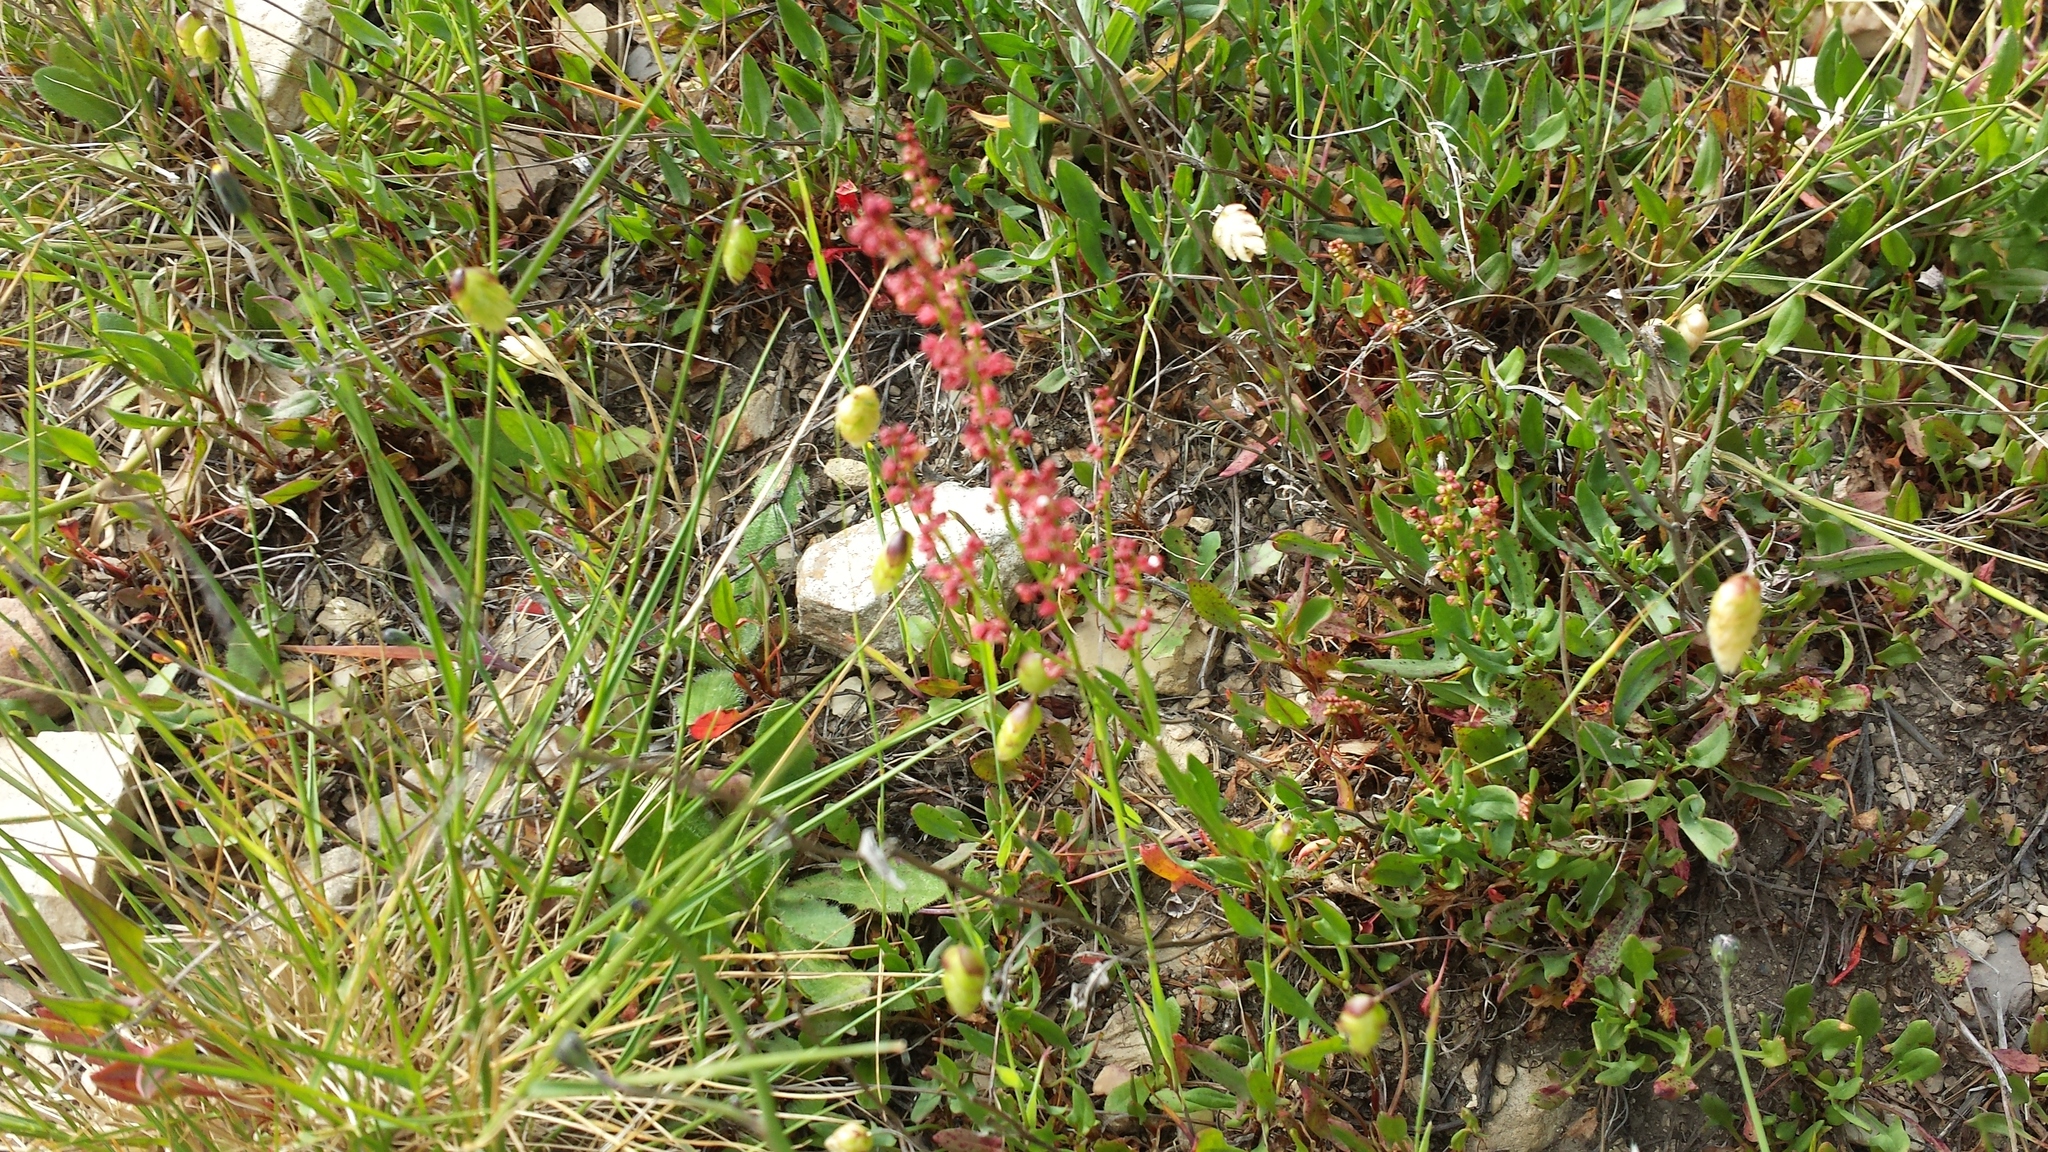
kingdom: Plantae
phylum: Tracheophyta
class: Magnoliopsida
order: Caryophyllales
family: Polygonaceae
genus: Rumex
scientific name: Rumex acetosella
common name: Common sheep sorrel
